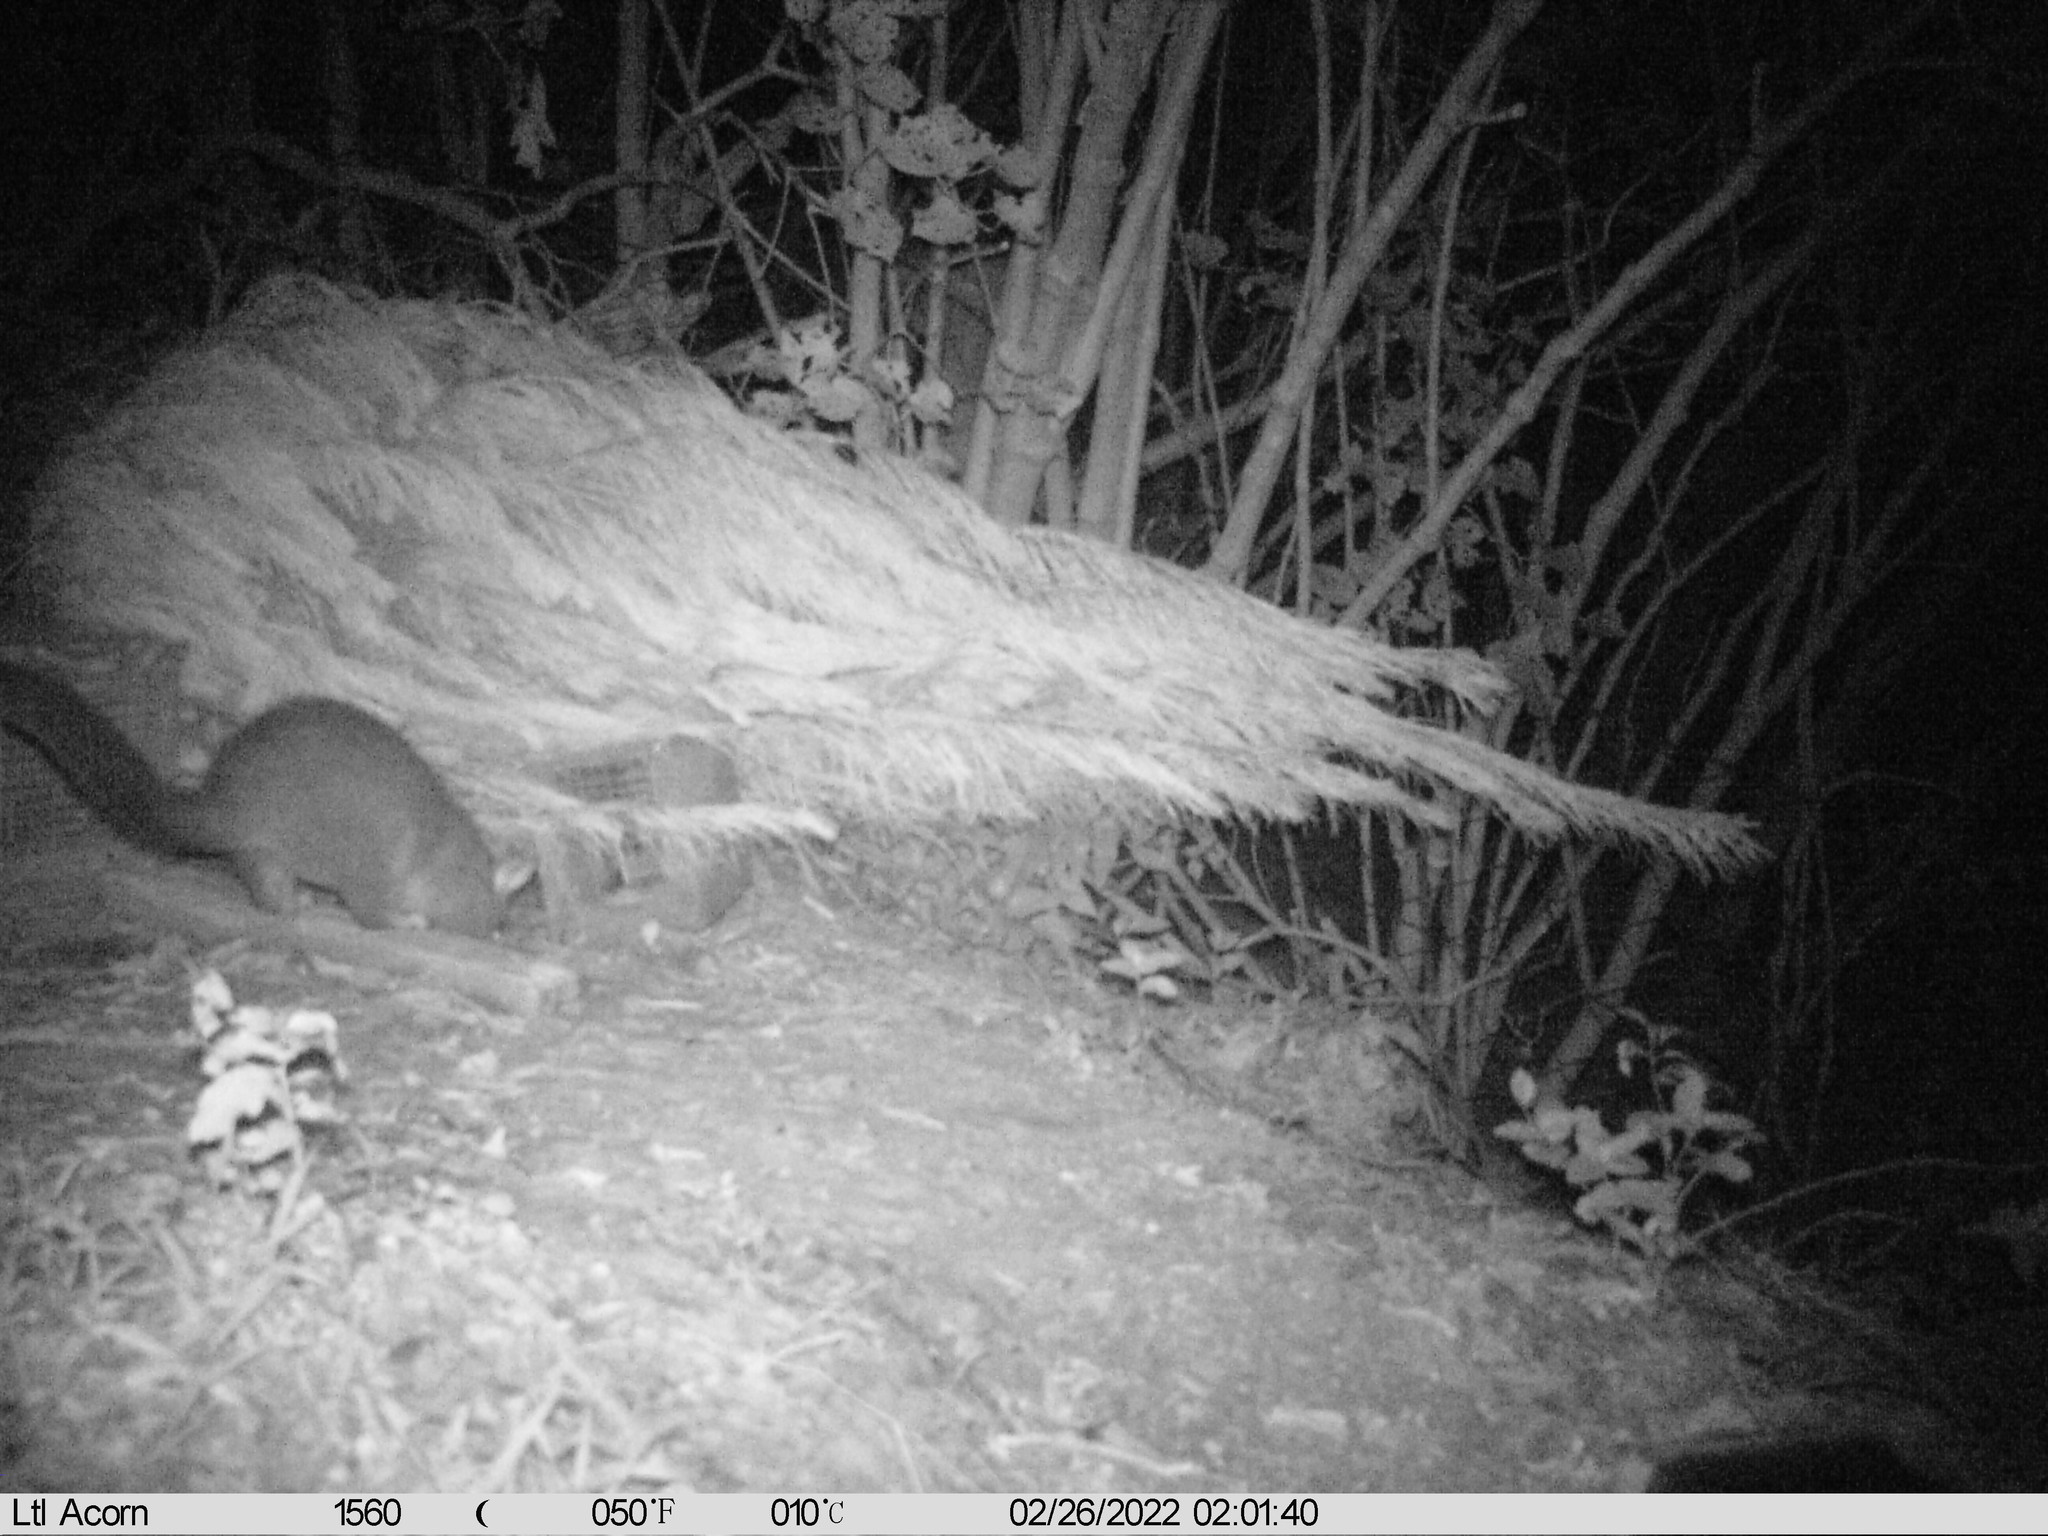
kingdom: Animalia
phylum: Chordata
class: Mammalia
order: Diprotodontia
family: Phalangeridae
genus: Trichosurus
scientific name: Trichosurus vulpecula
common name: Common brushtail
